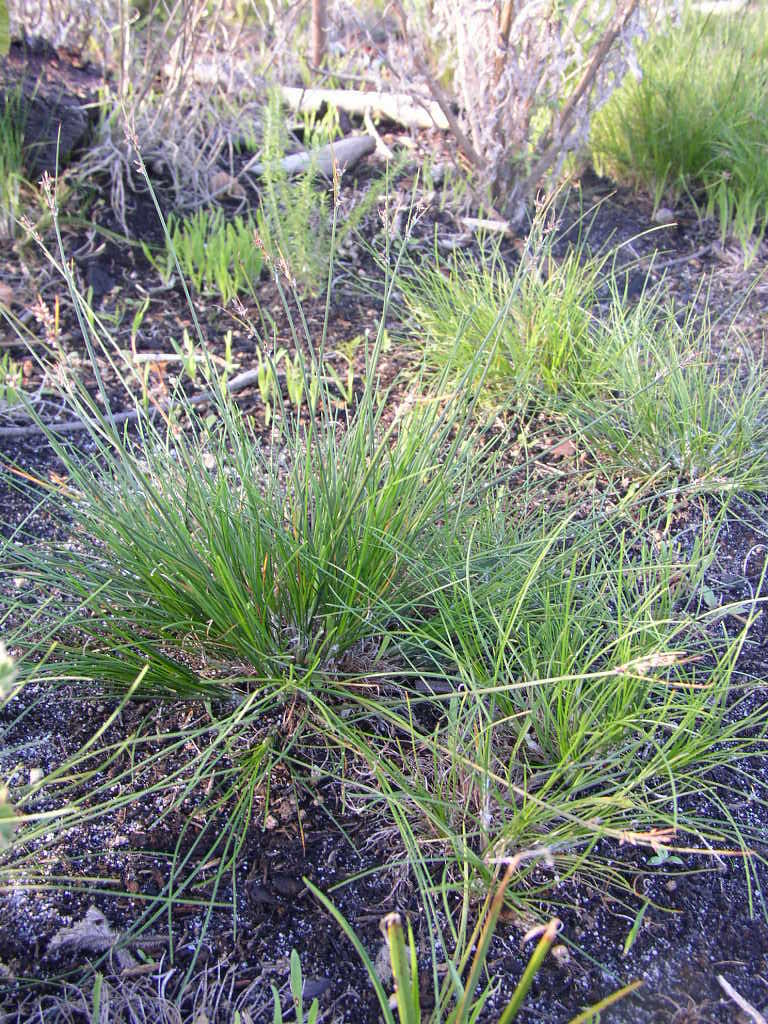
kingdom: Plantae
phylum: Tracheophyta
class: Liliopsida
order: Poales
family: Cyperaceae
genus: Ficinia
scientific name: Ficinia secunda
